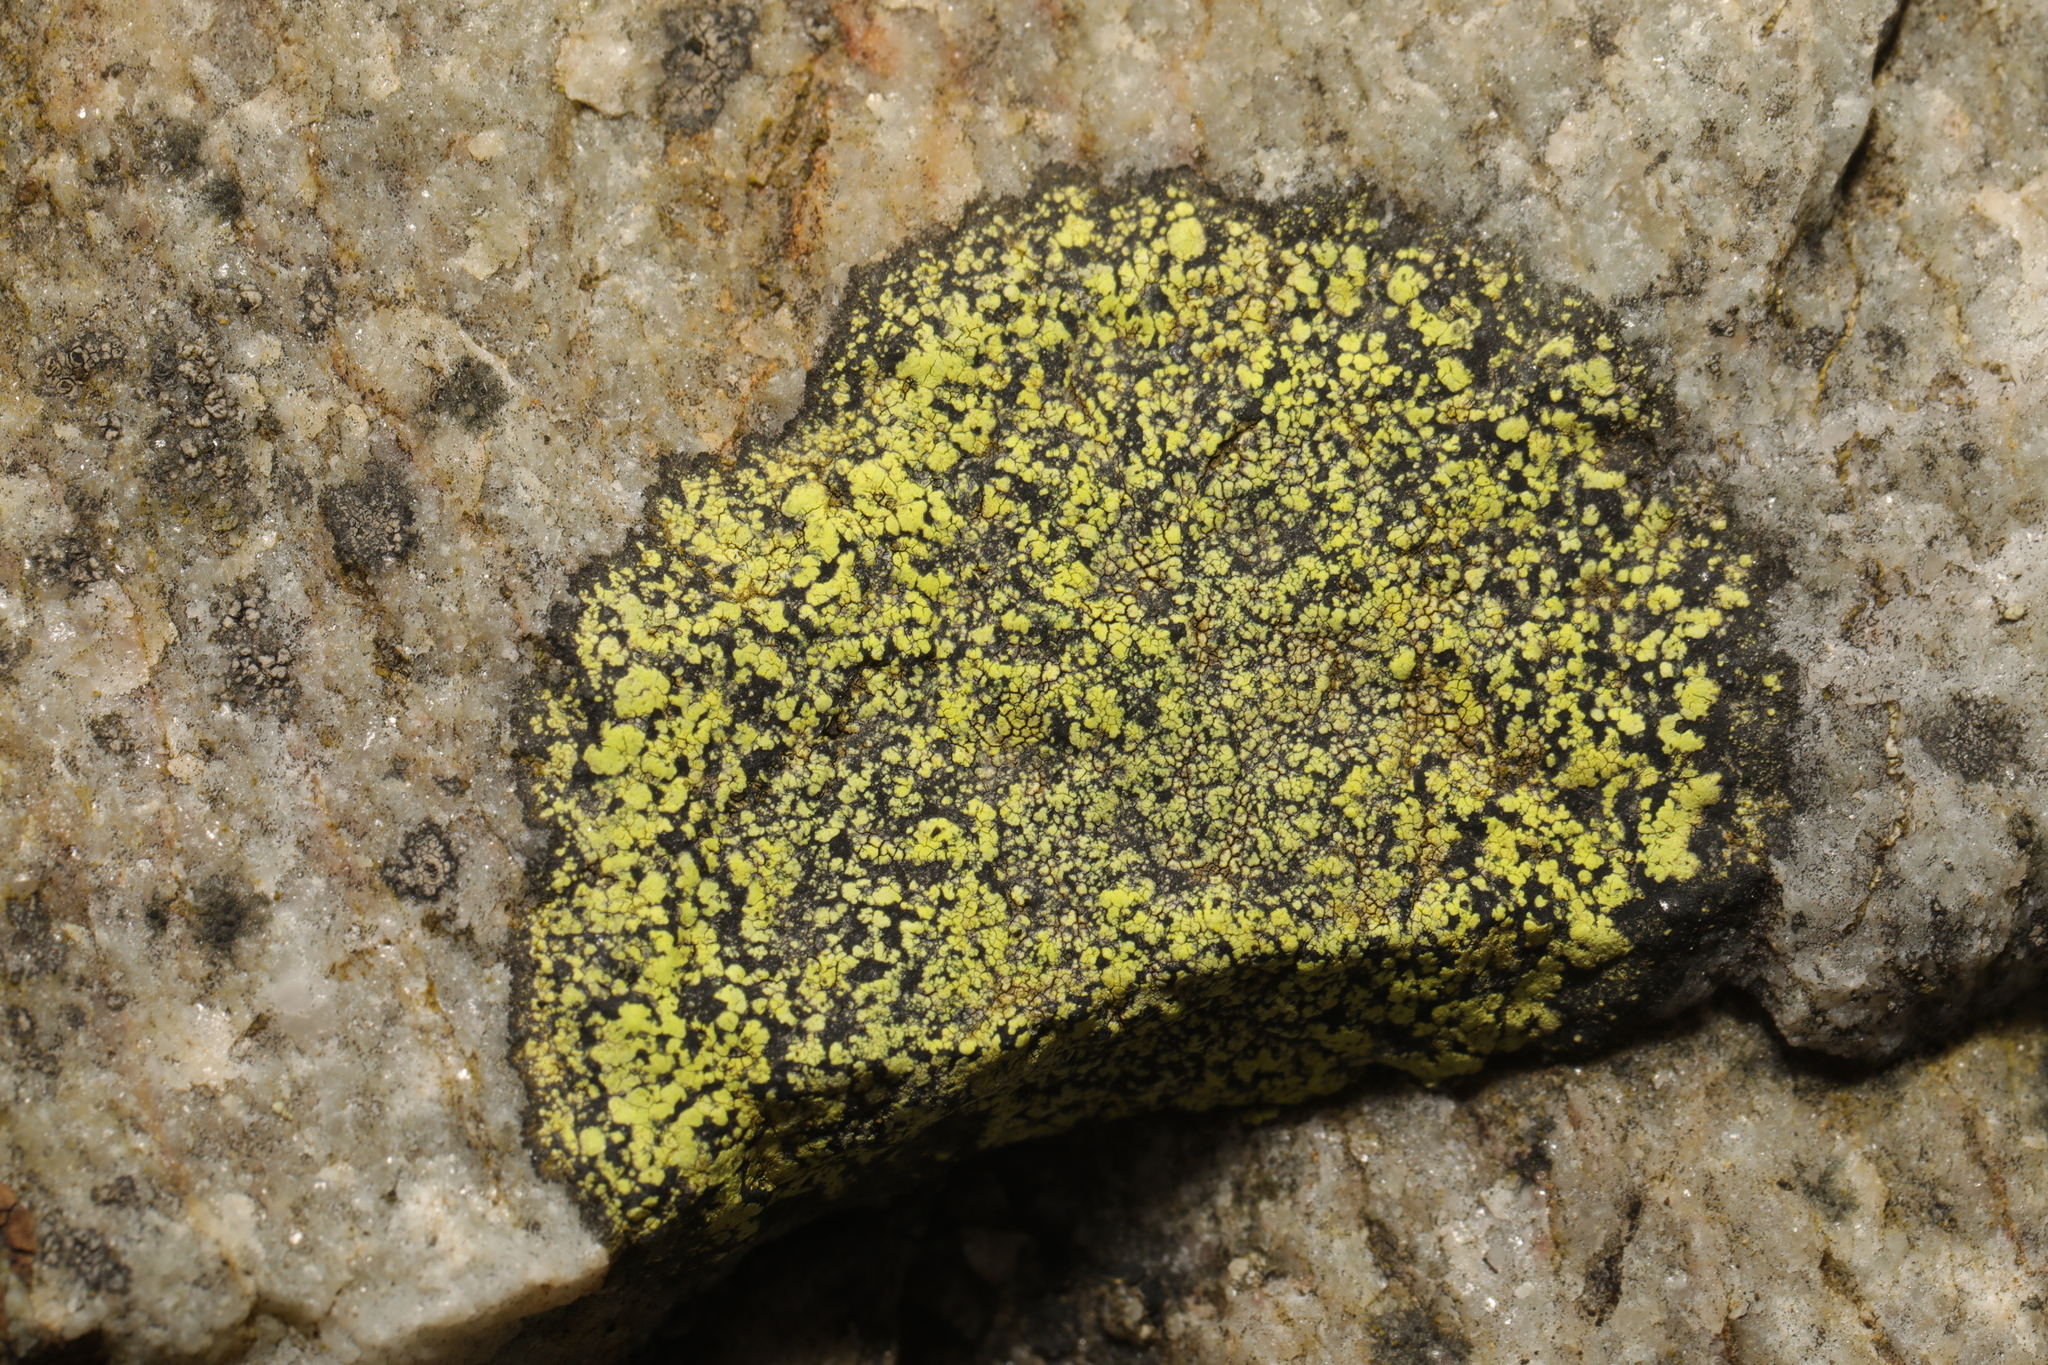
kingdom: Fungi
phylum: Ascomycota
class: Lecanoromycetes
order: Rhizocarpales
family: Rhizocarpaceae
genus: Rhizocarpon
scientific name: Rhizocarpon geographicum
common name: Yellow map lichen
